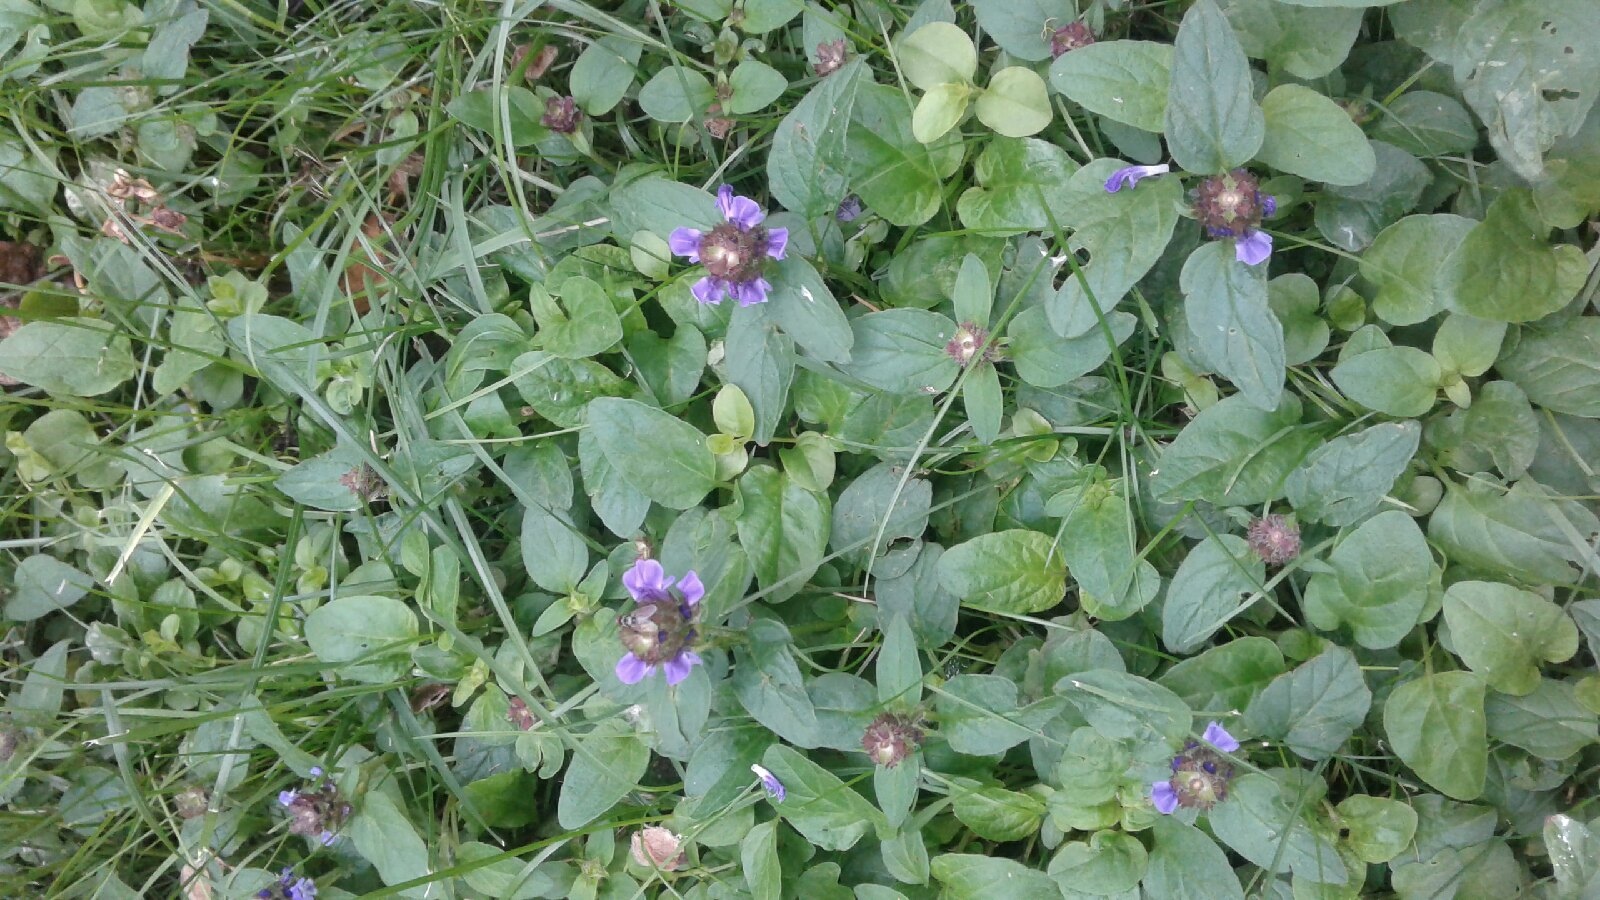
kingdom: Plantae
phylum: Tracheophyta
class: Magnoliopsida
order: Lamiales
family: Lamiaceae
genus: Prunella
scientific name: Prunella vulgaris
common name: Heal-all
